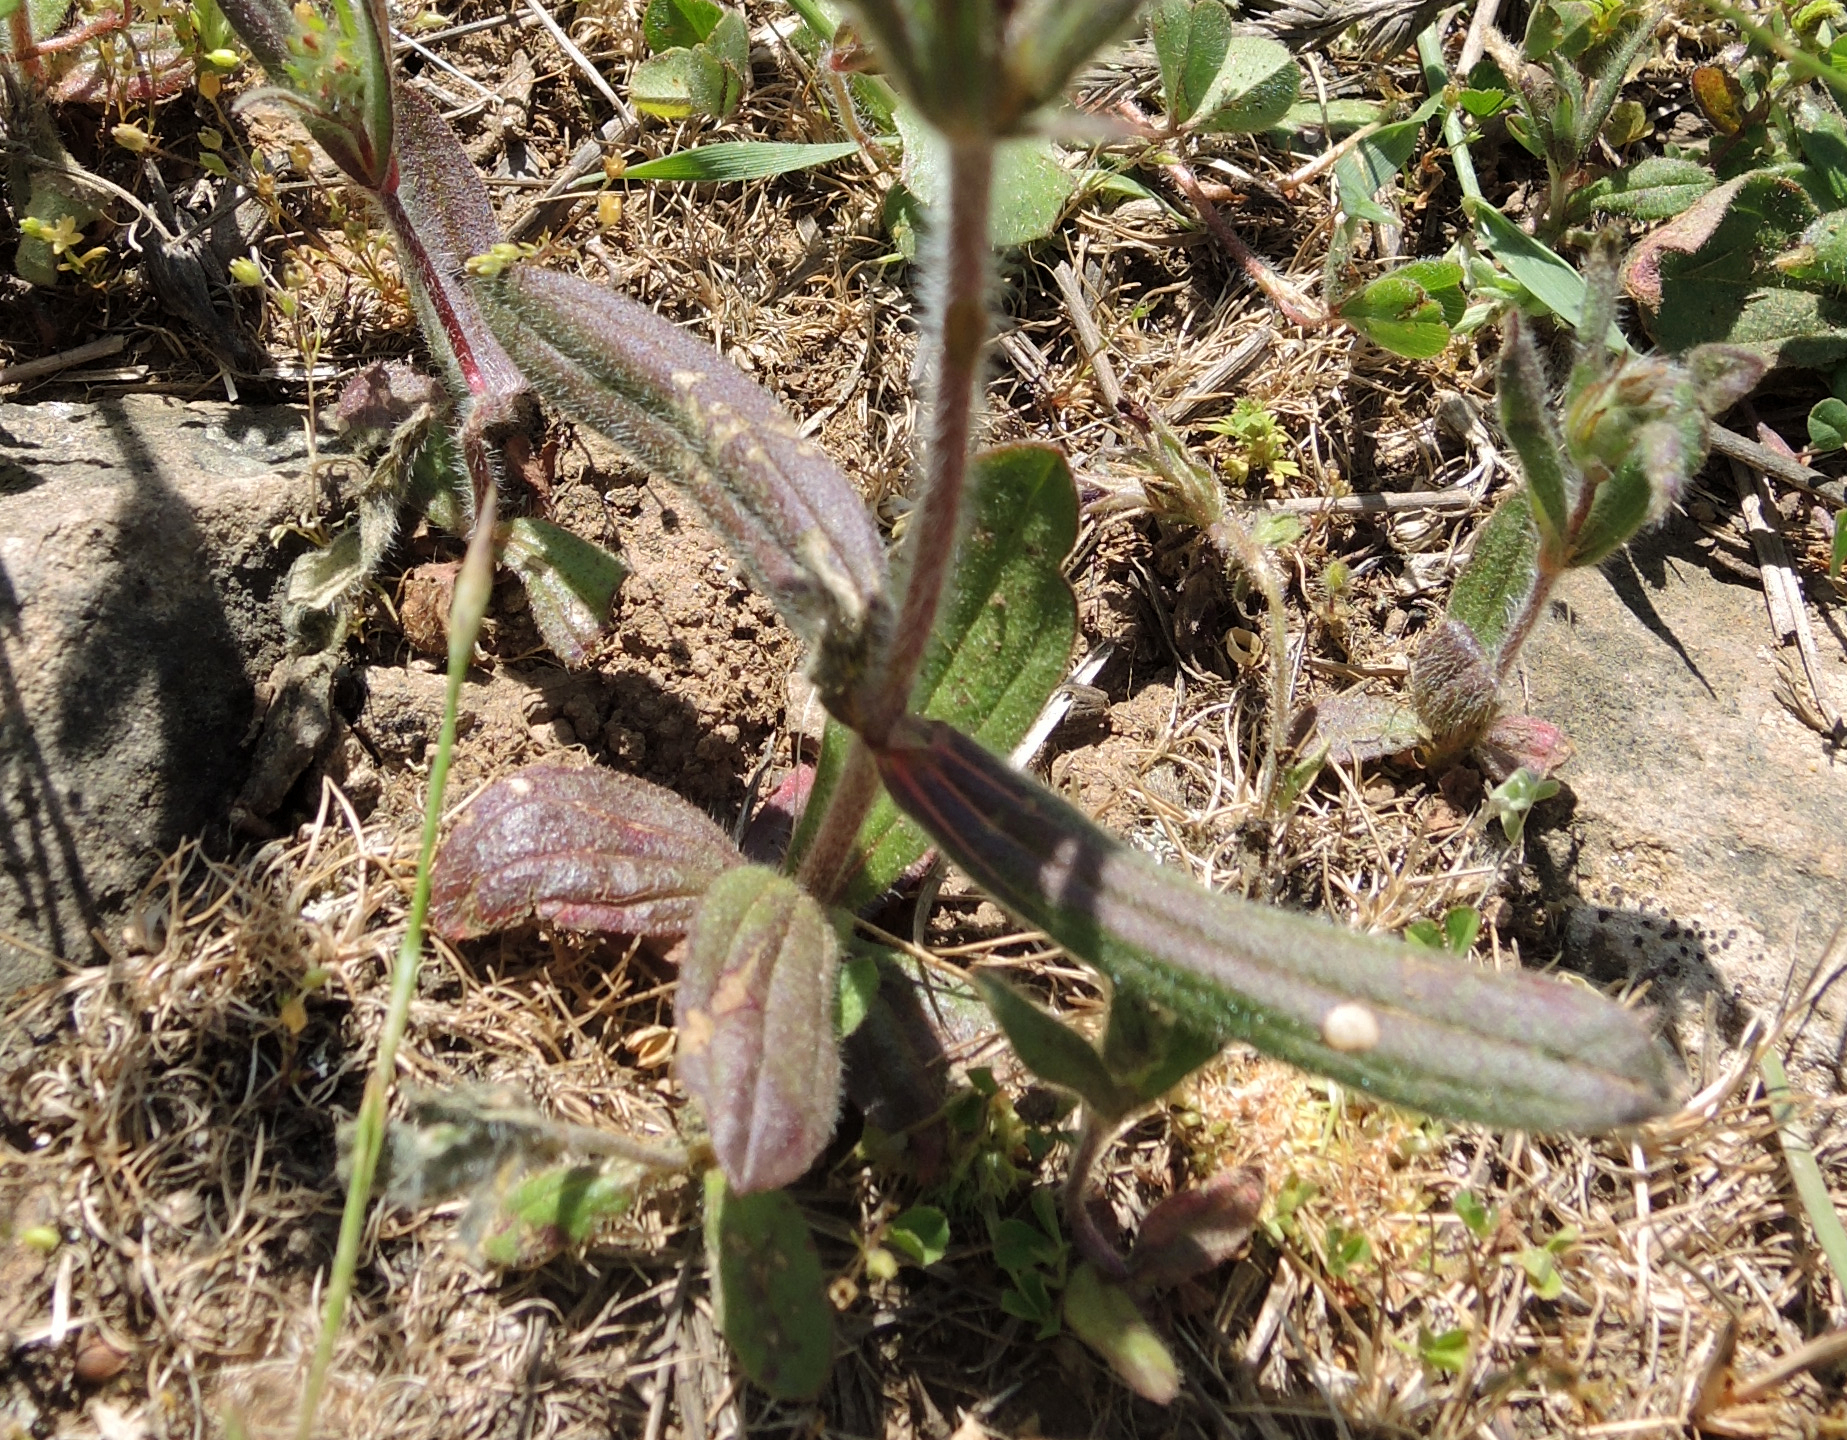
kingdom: Plantae
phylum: Tracheophyta
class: Magnoliopsida
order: Malvales
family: Cistaceae
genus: Tuberaria
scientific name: Tuberaria guttata
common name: Spotted rock-rose
